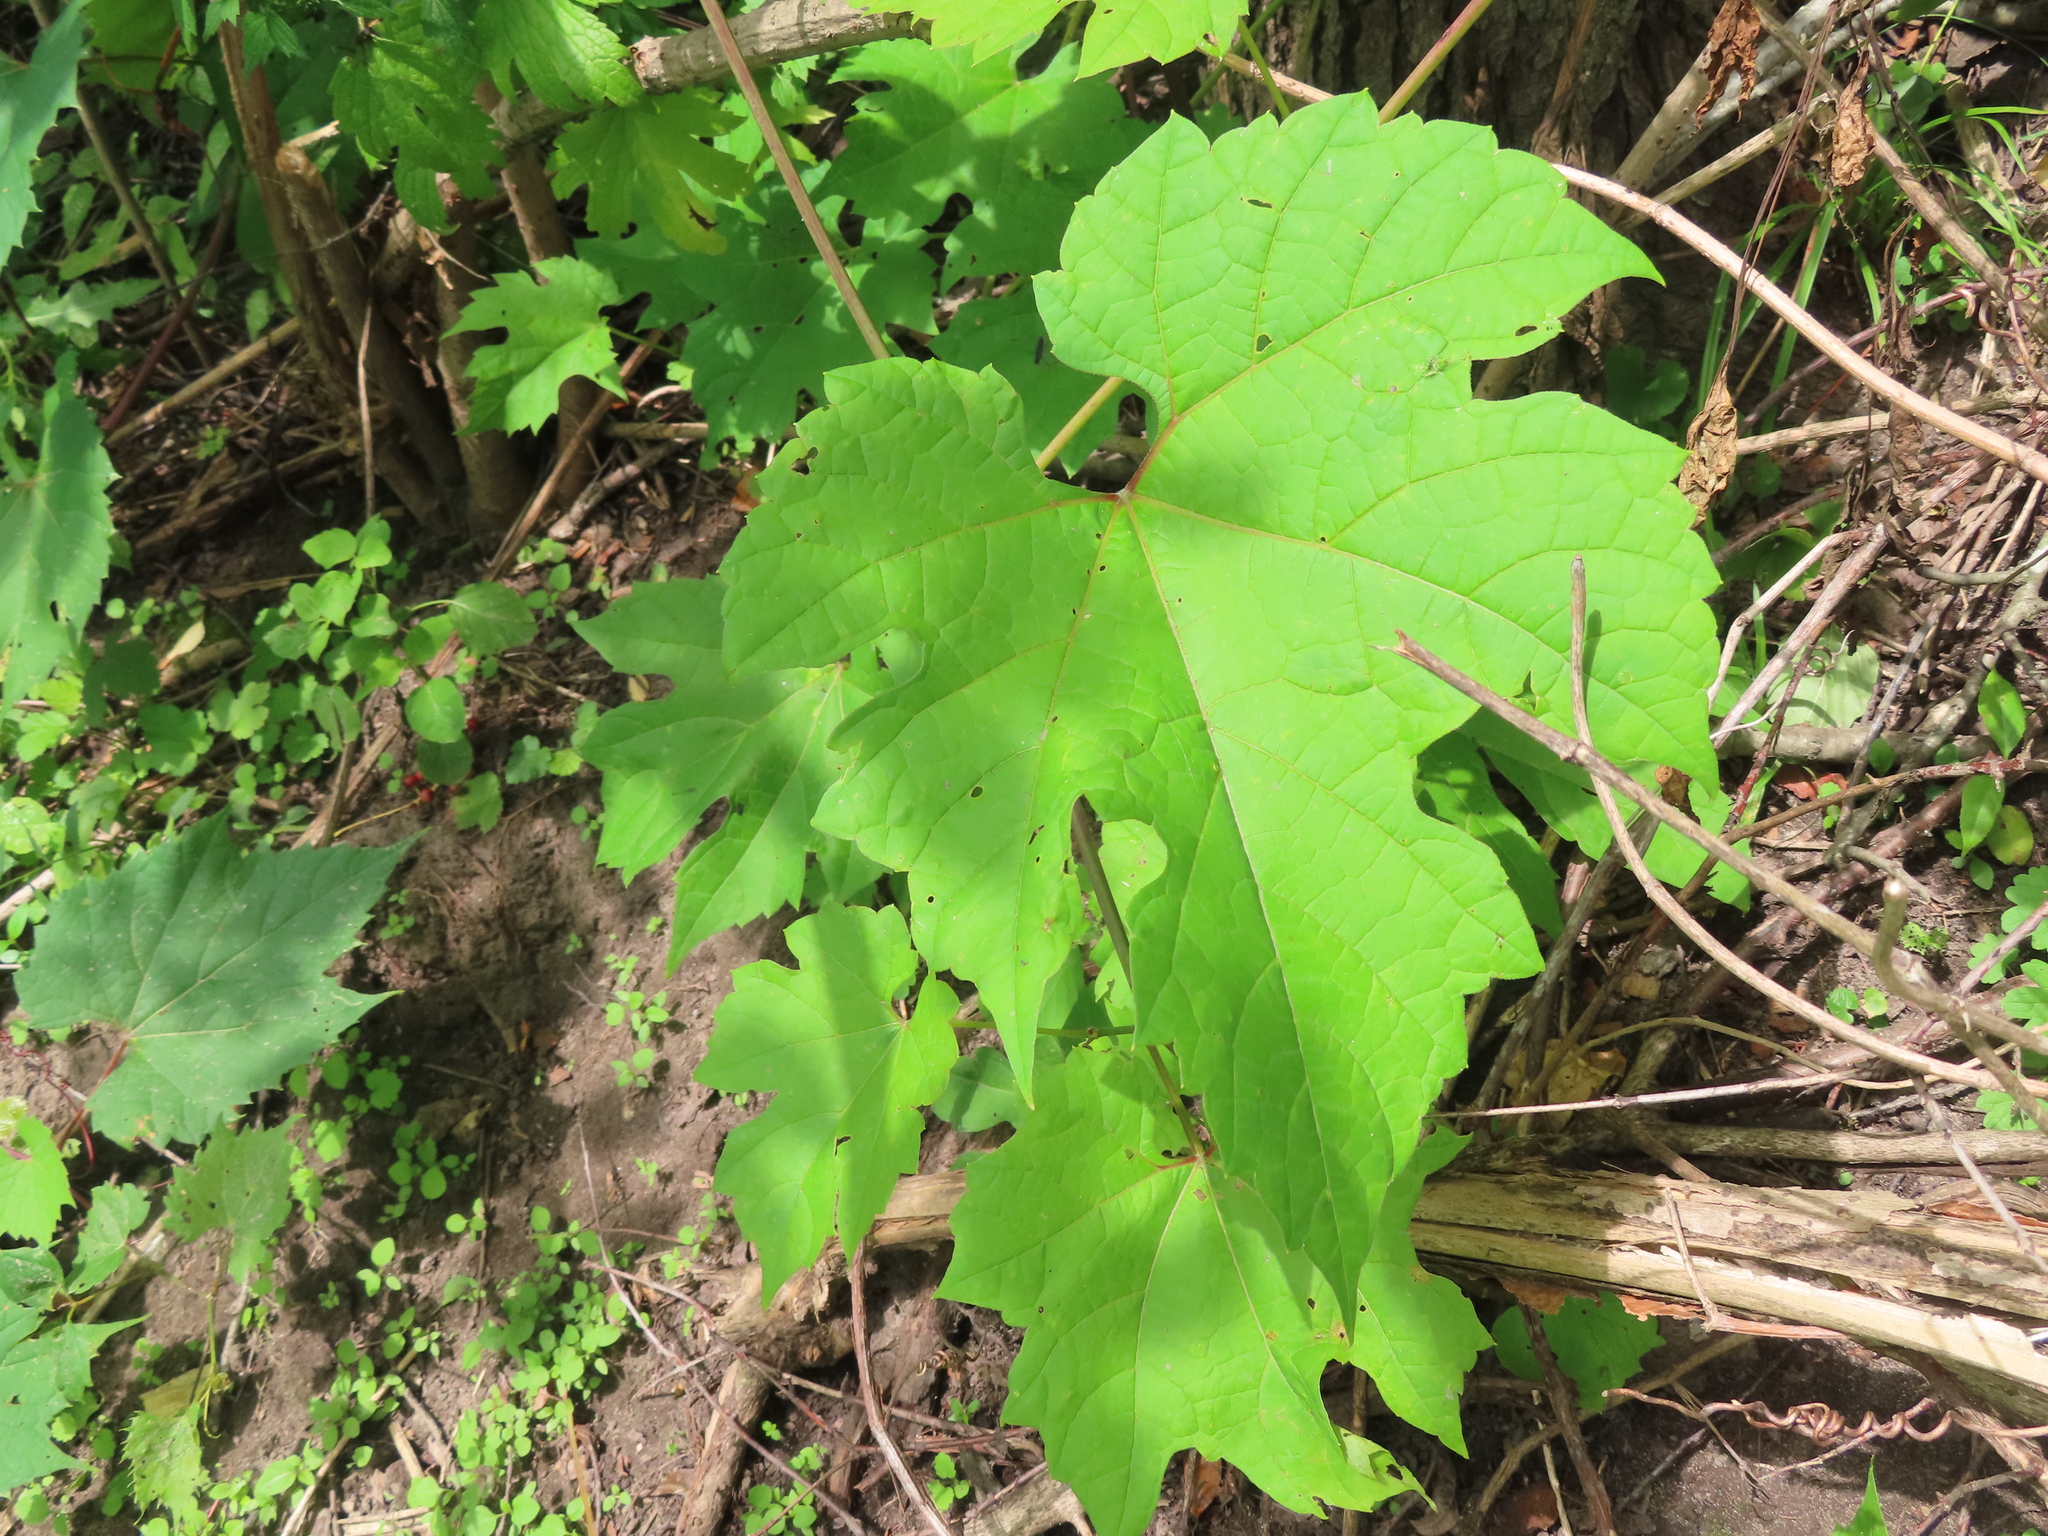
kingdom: Plantae
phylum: Tracheophyta
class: Magnoliopsida
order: Vitales
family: Vitaceae
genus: Vitis
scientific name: Vitis riparia
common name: Frost grape
